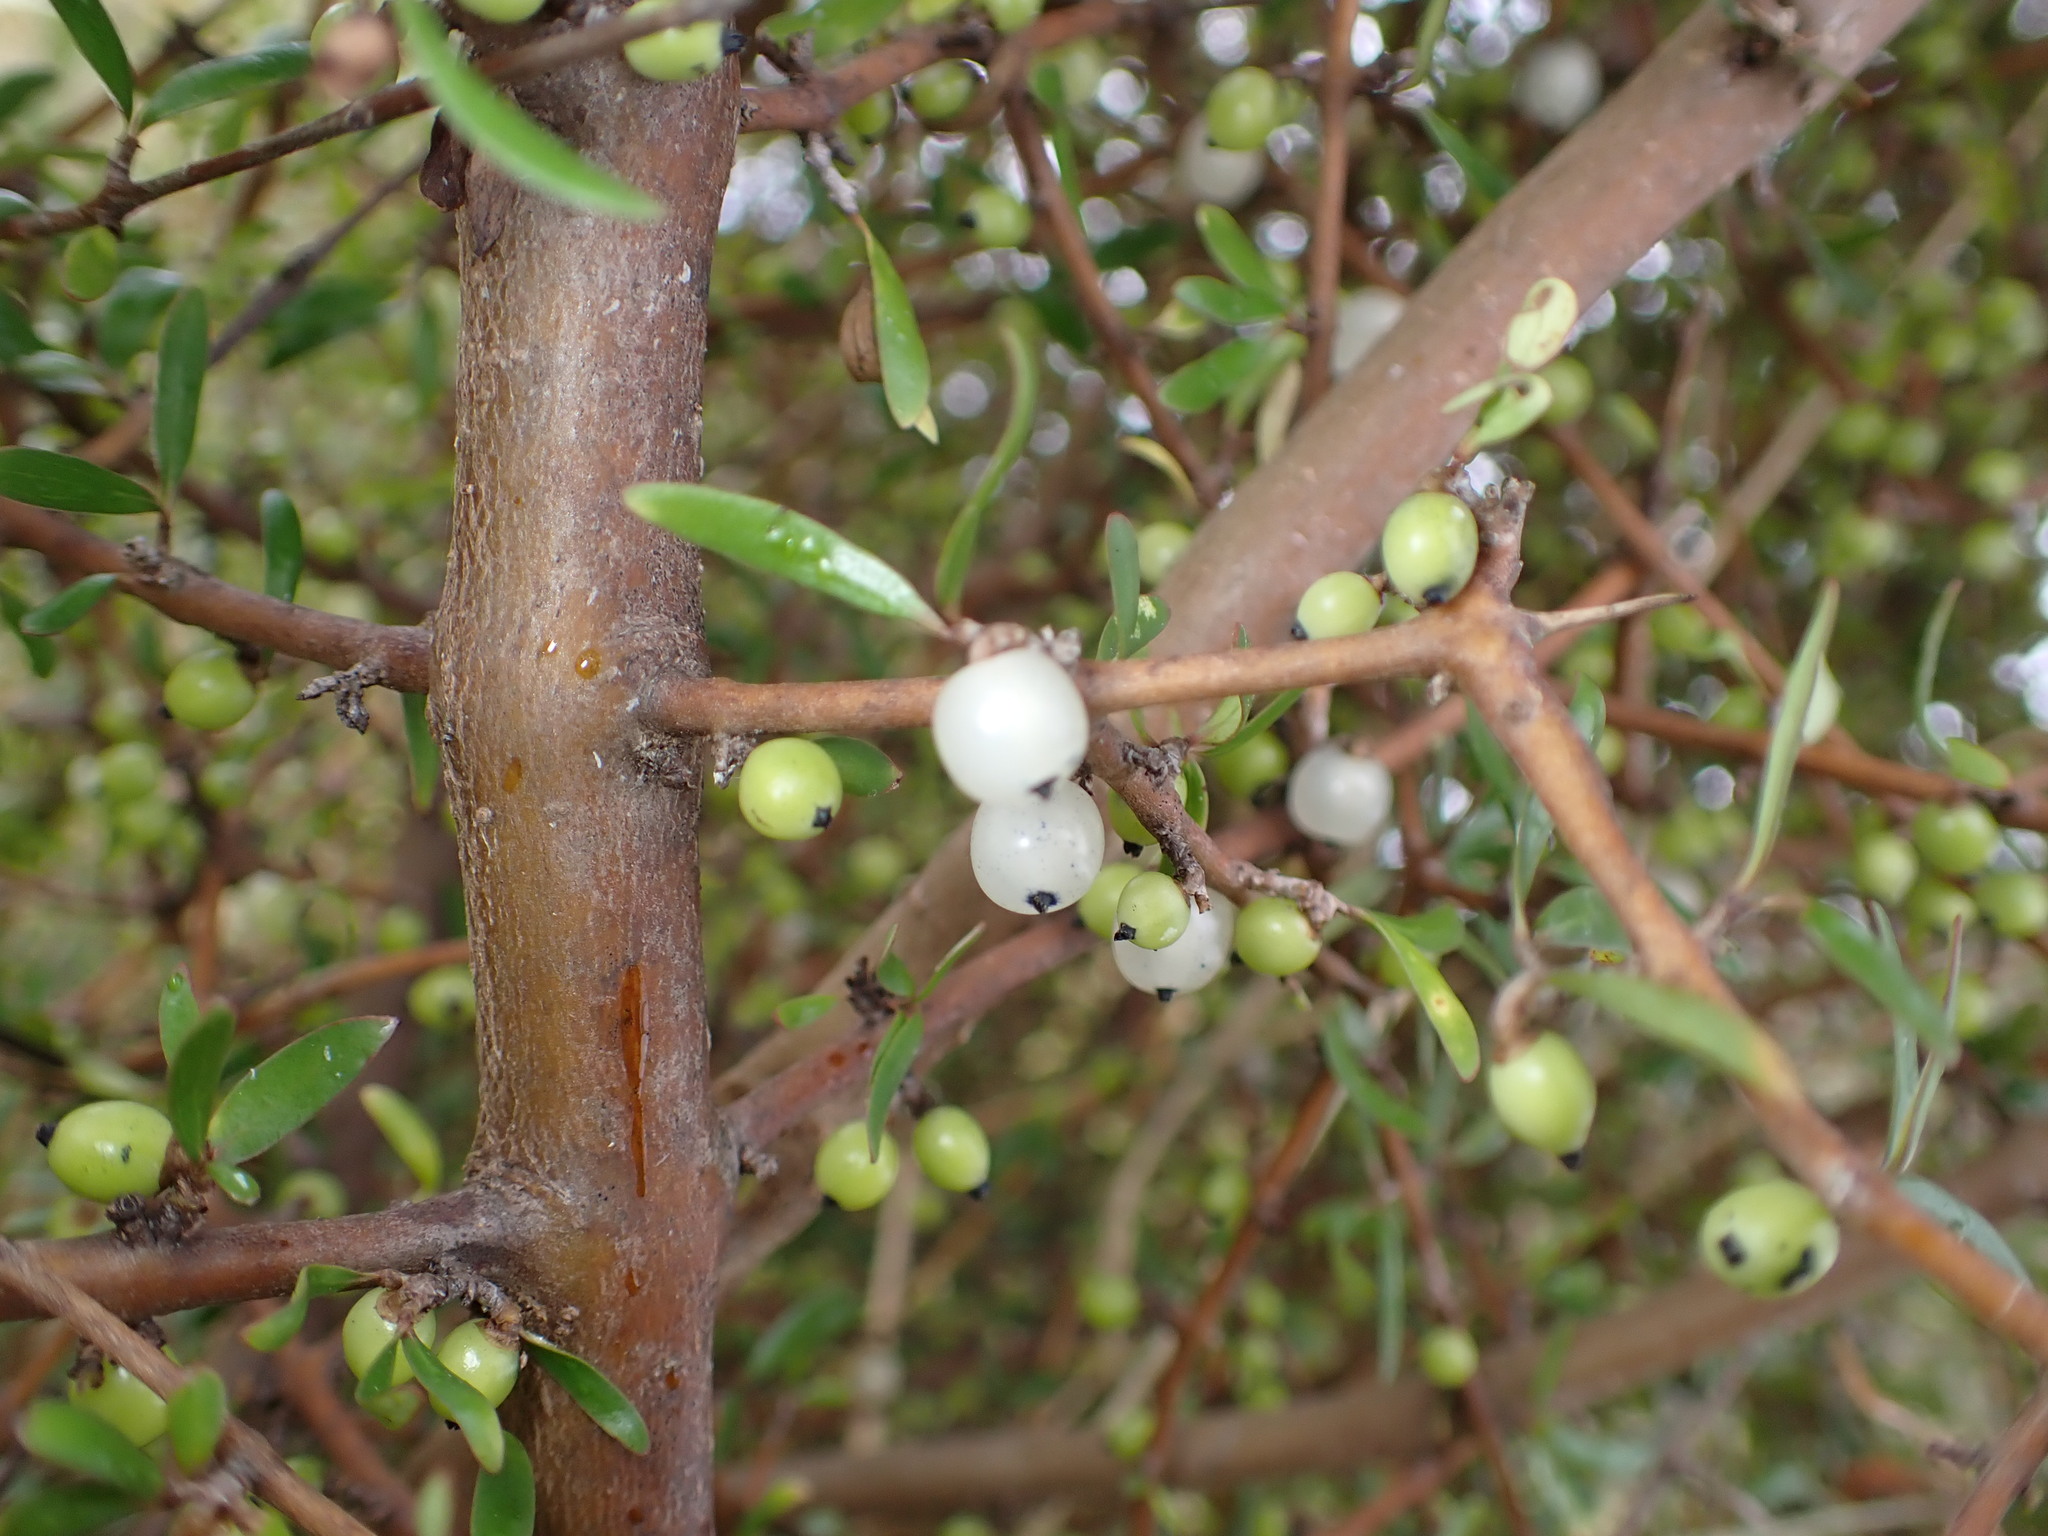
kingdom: Plantae
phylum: Tracheophyta
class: Magnoliopsida
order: Gentianales
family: Rubiaceae
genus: Coprosma
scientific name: Coprosma propinqua
